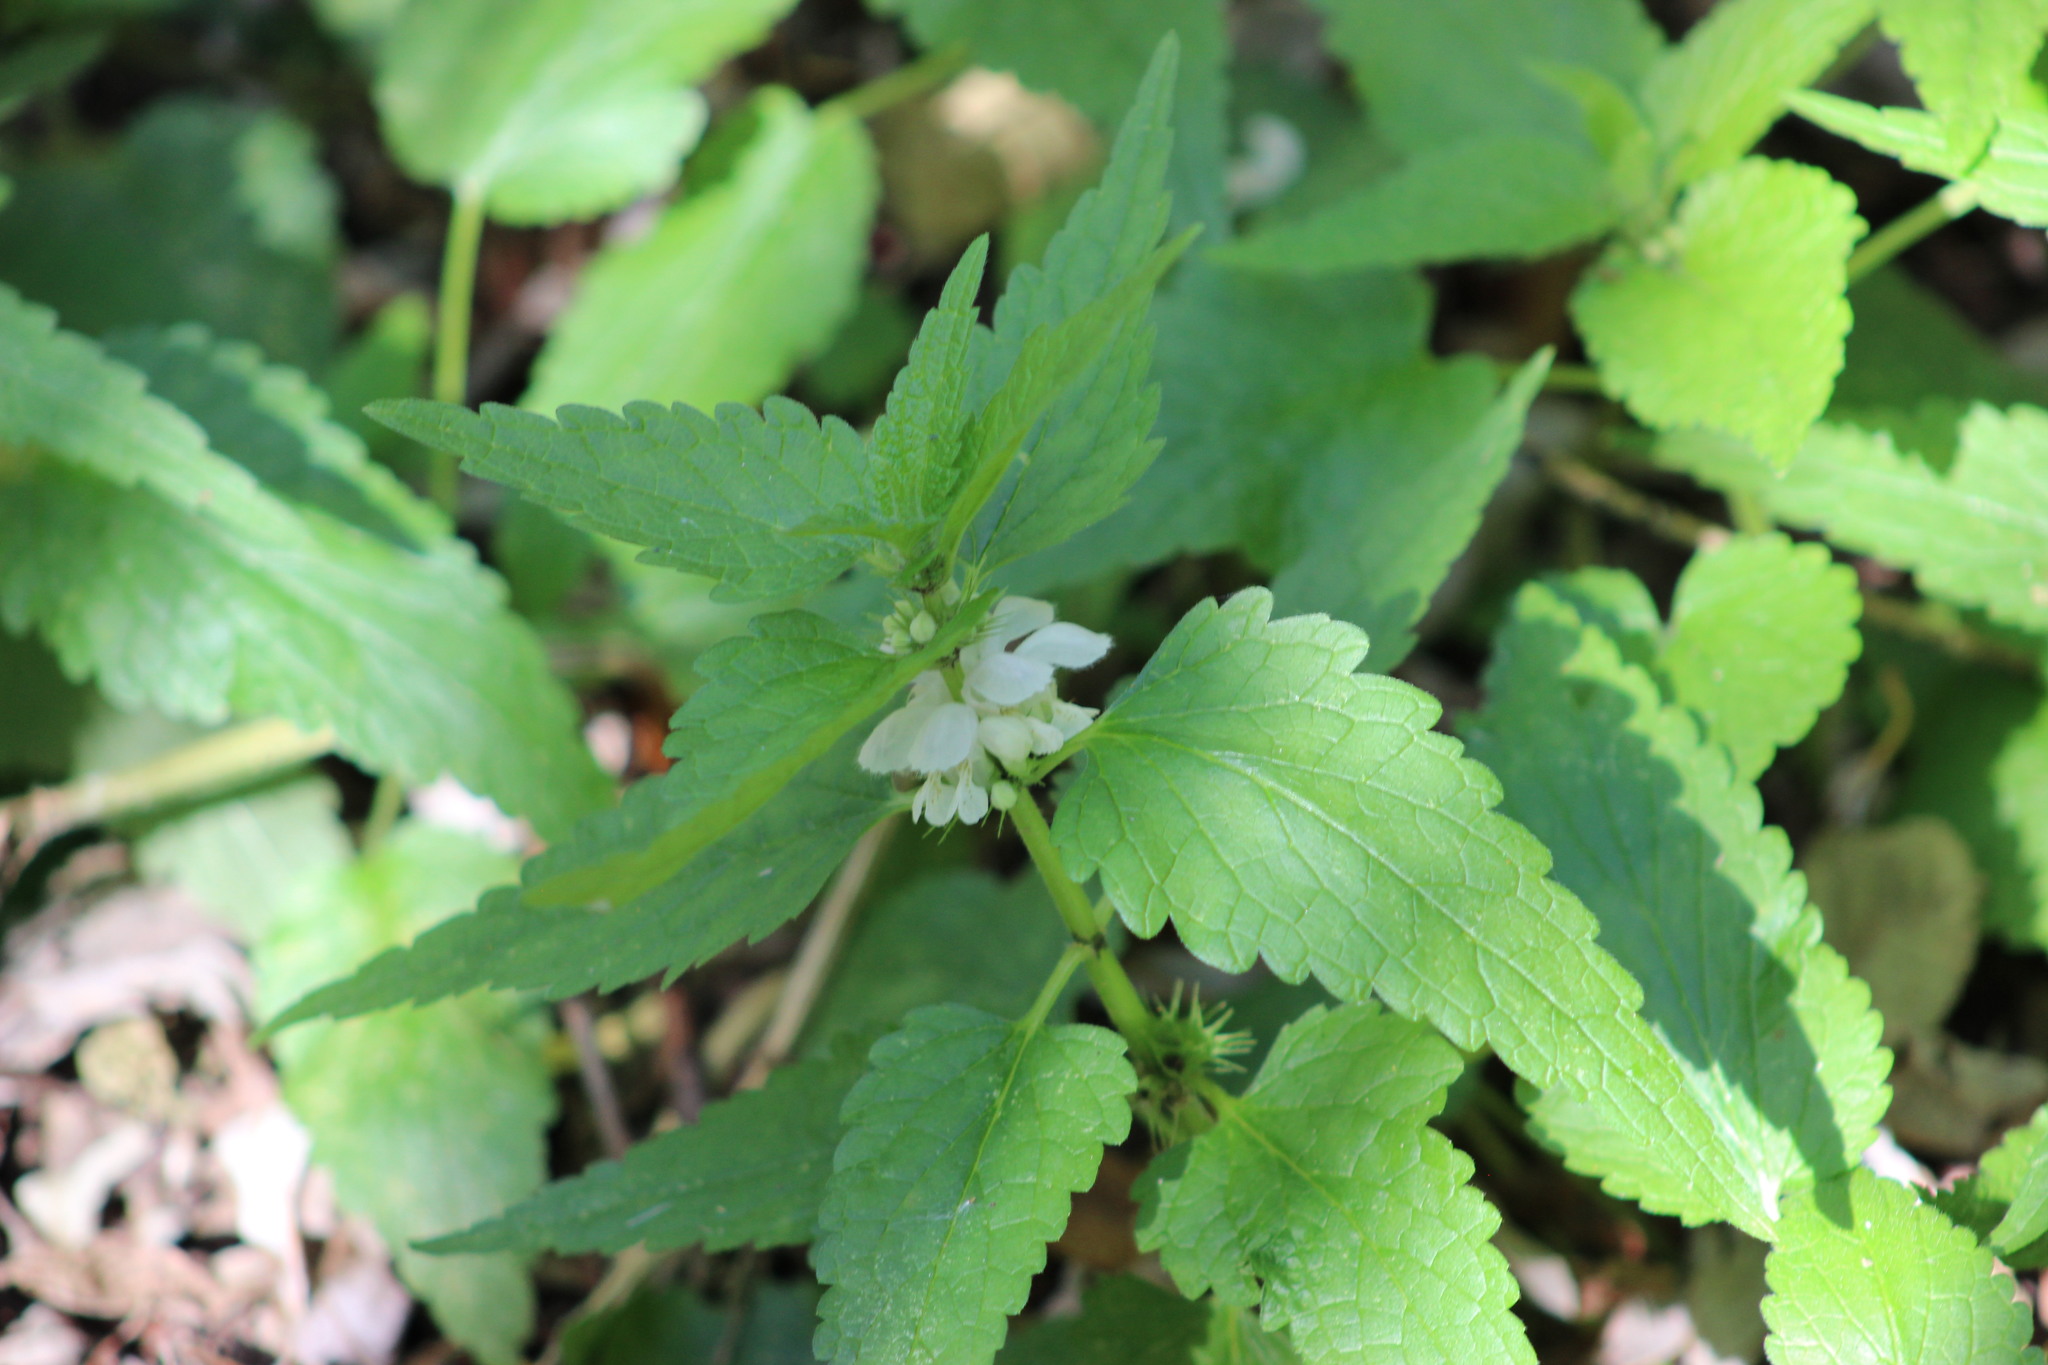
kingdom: Plantae
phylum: Tracheophyta
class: Magnoliopsida
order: Lamiales
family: Lamiaceae
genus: Lamium
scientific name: Lamium album
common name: White dead-nettle
